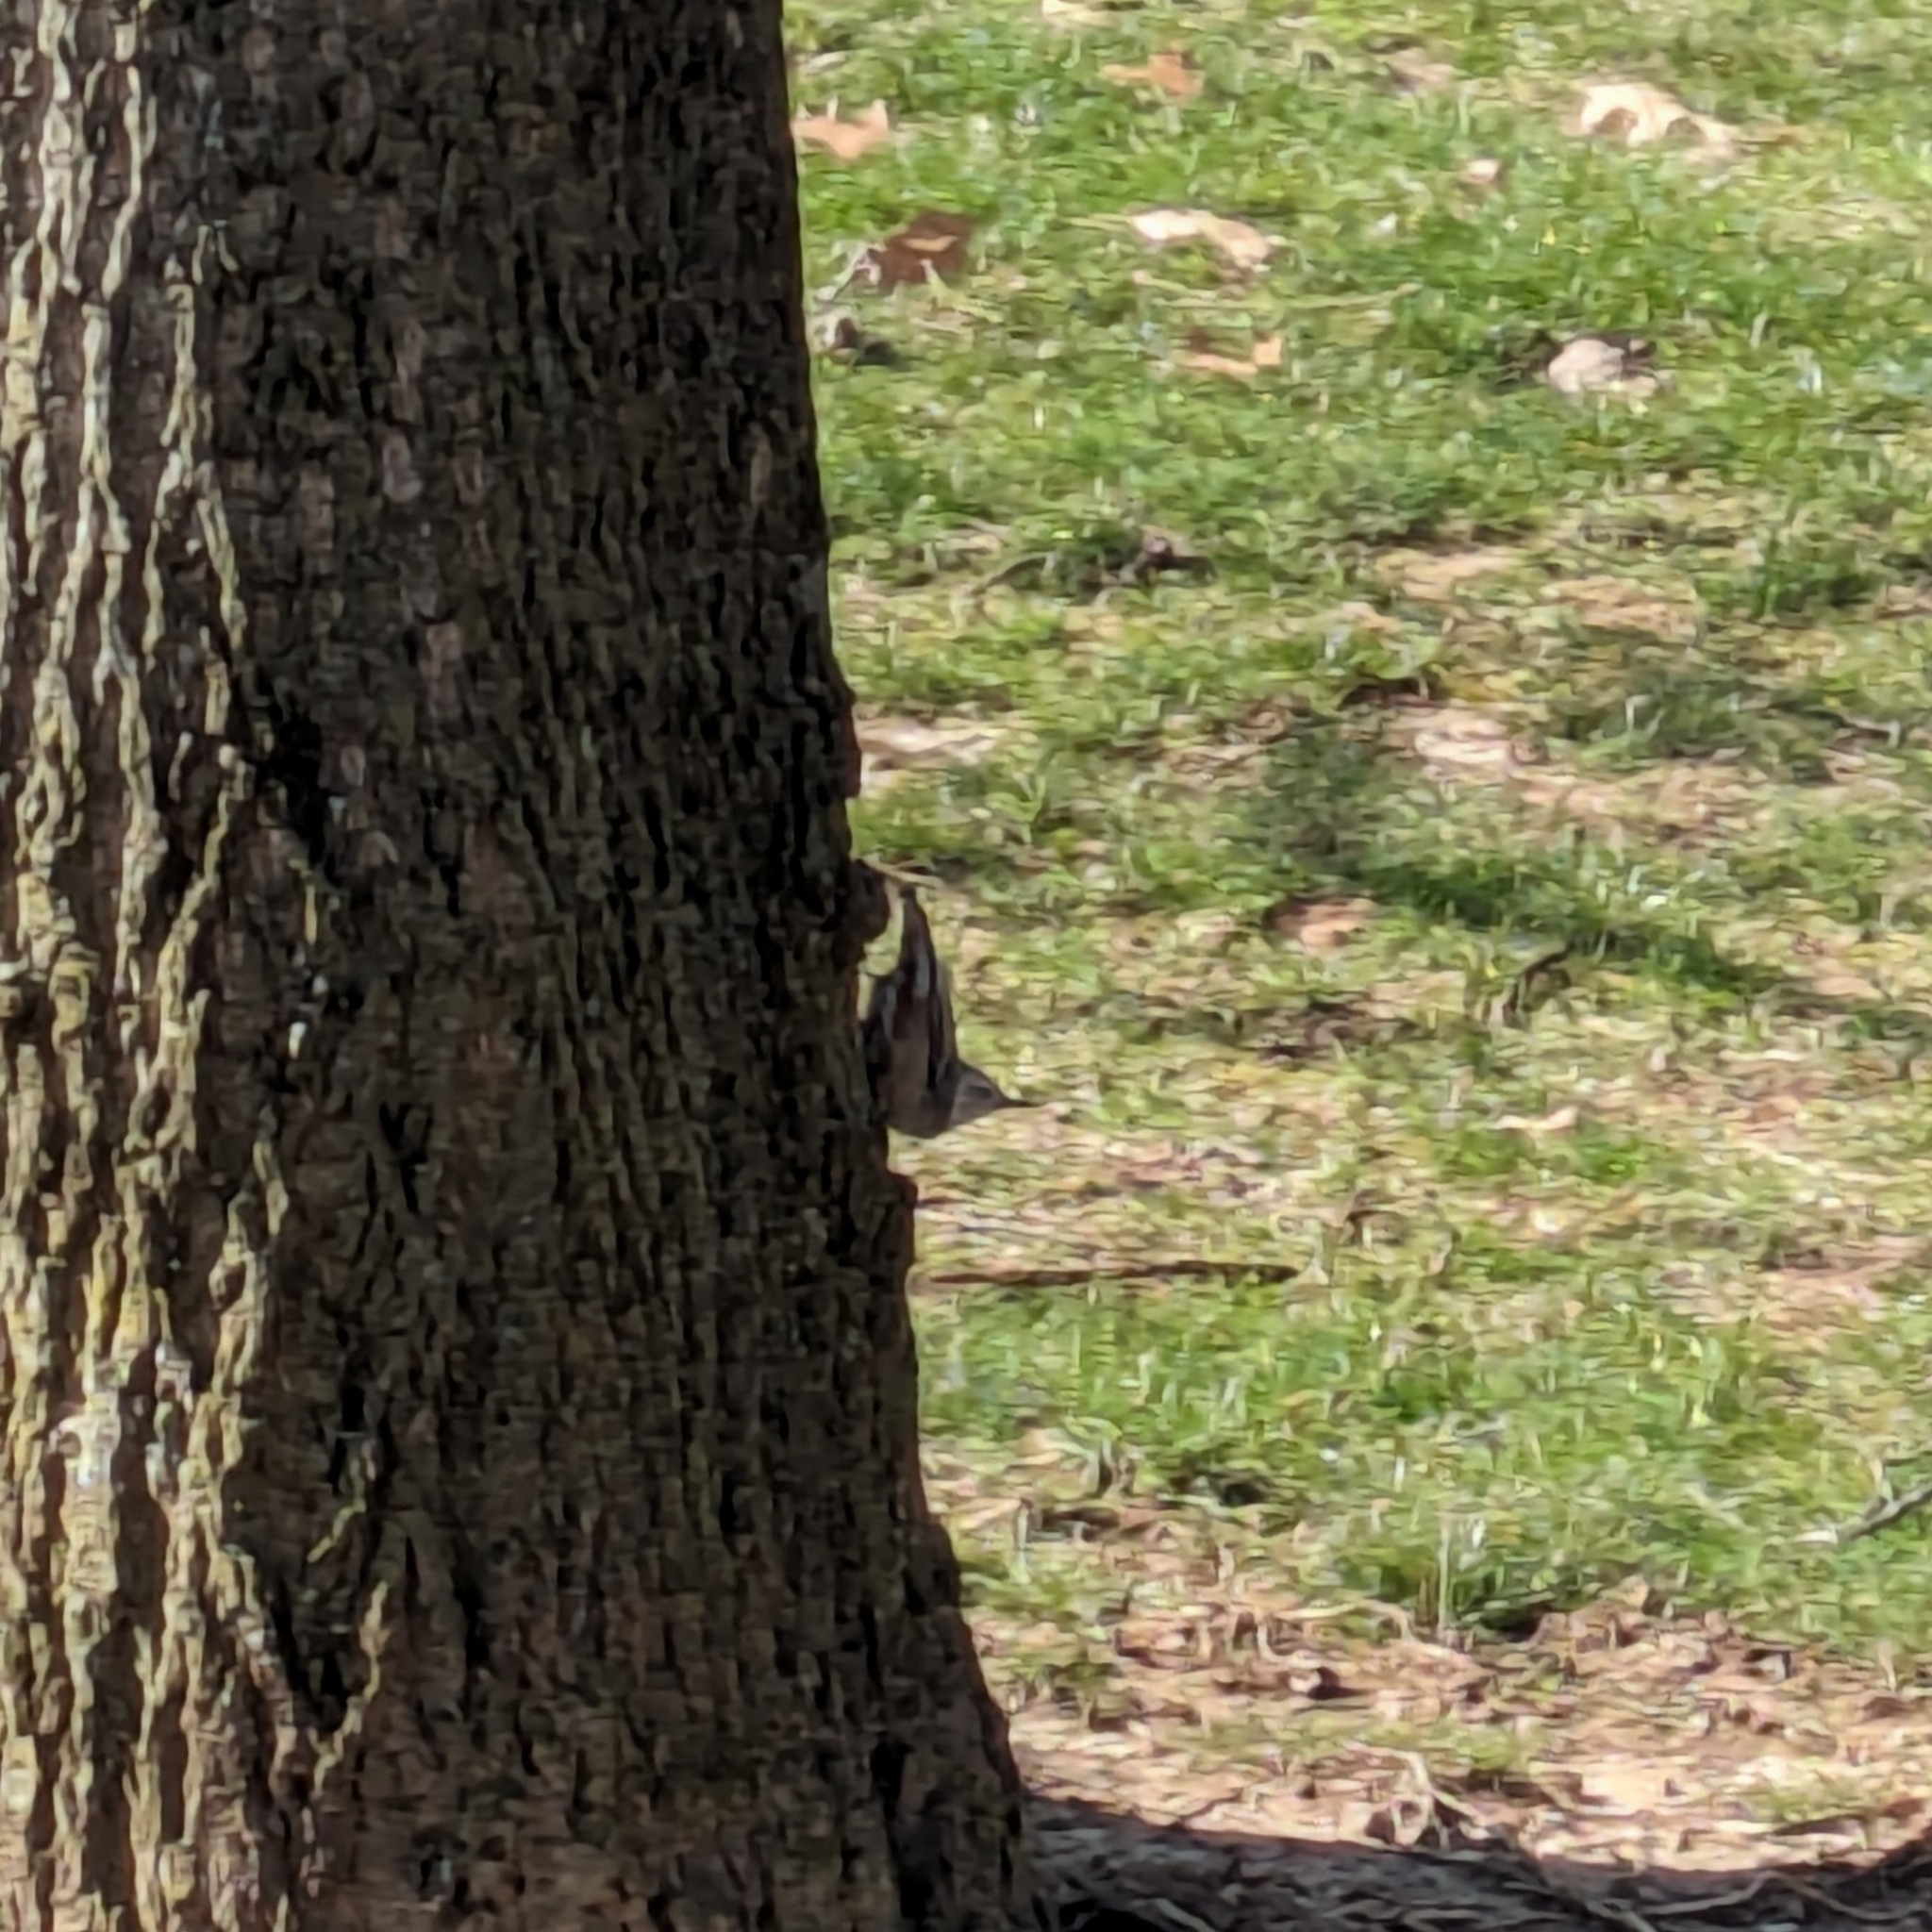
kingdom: Animalia
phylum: Chordata
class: Aves
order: Passeriformes
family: Sittidae
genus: Sitta
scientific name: Sitta carolinensis
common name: White-breasted nuthatch
